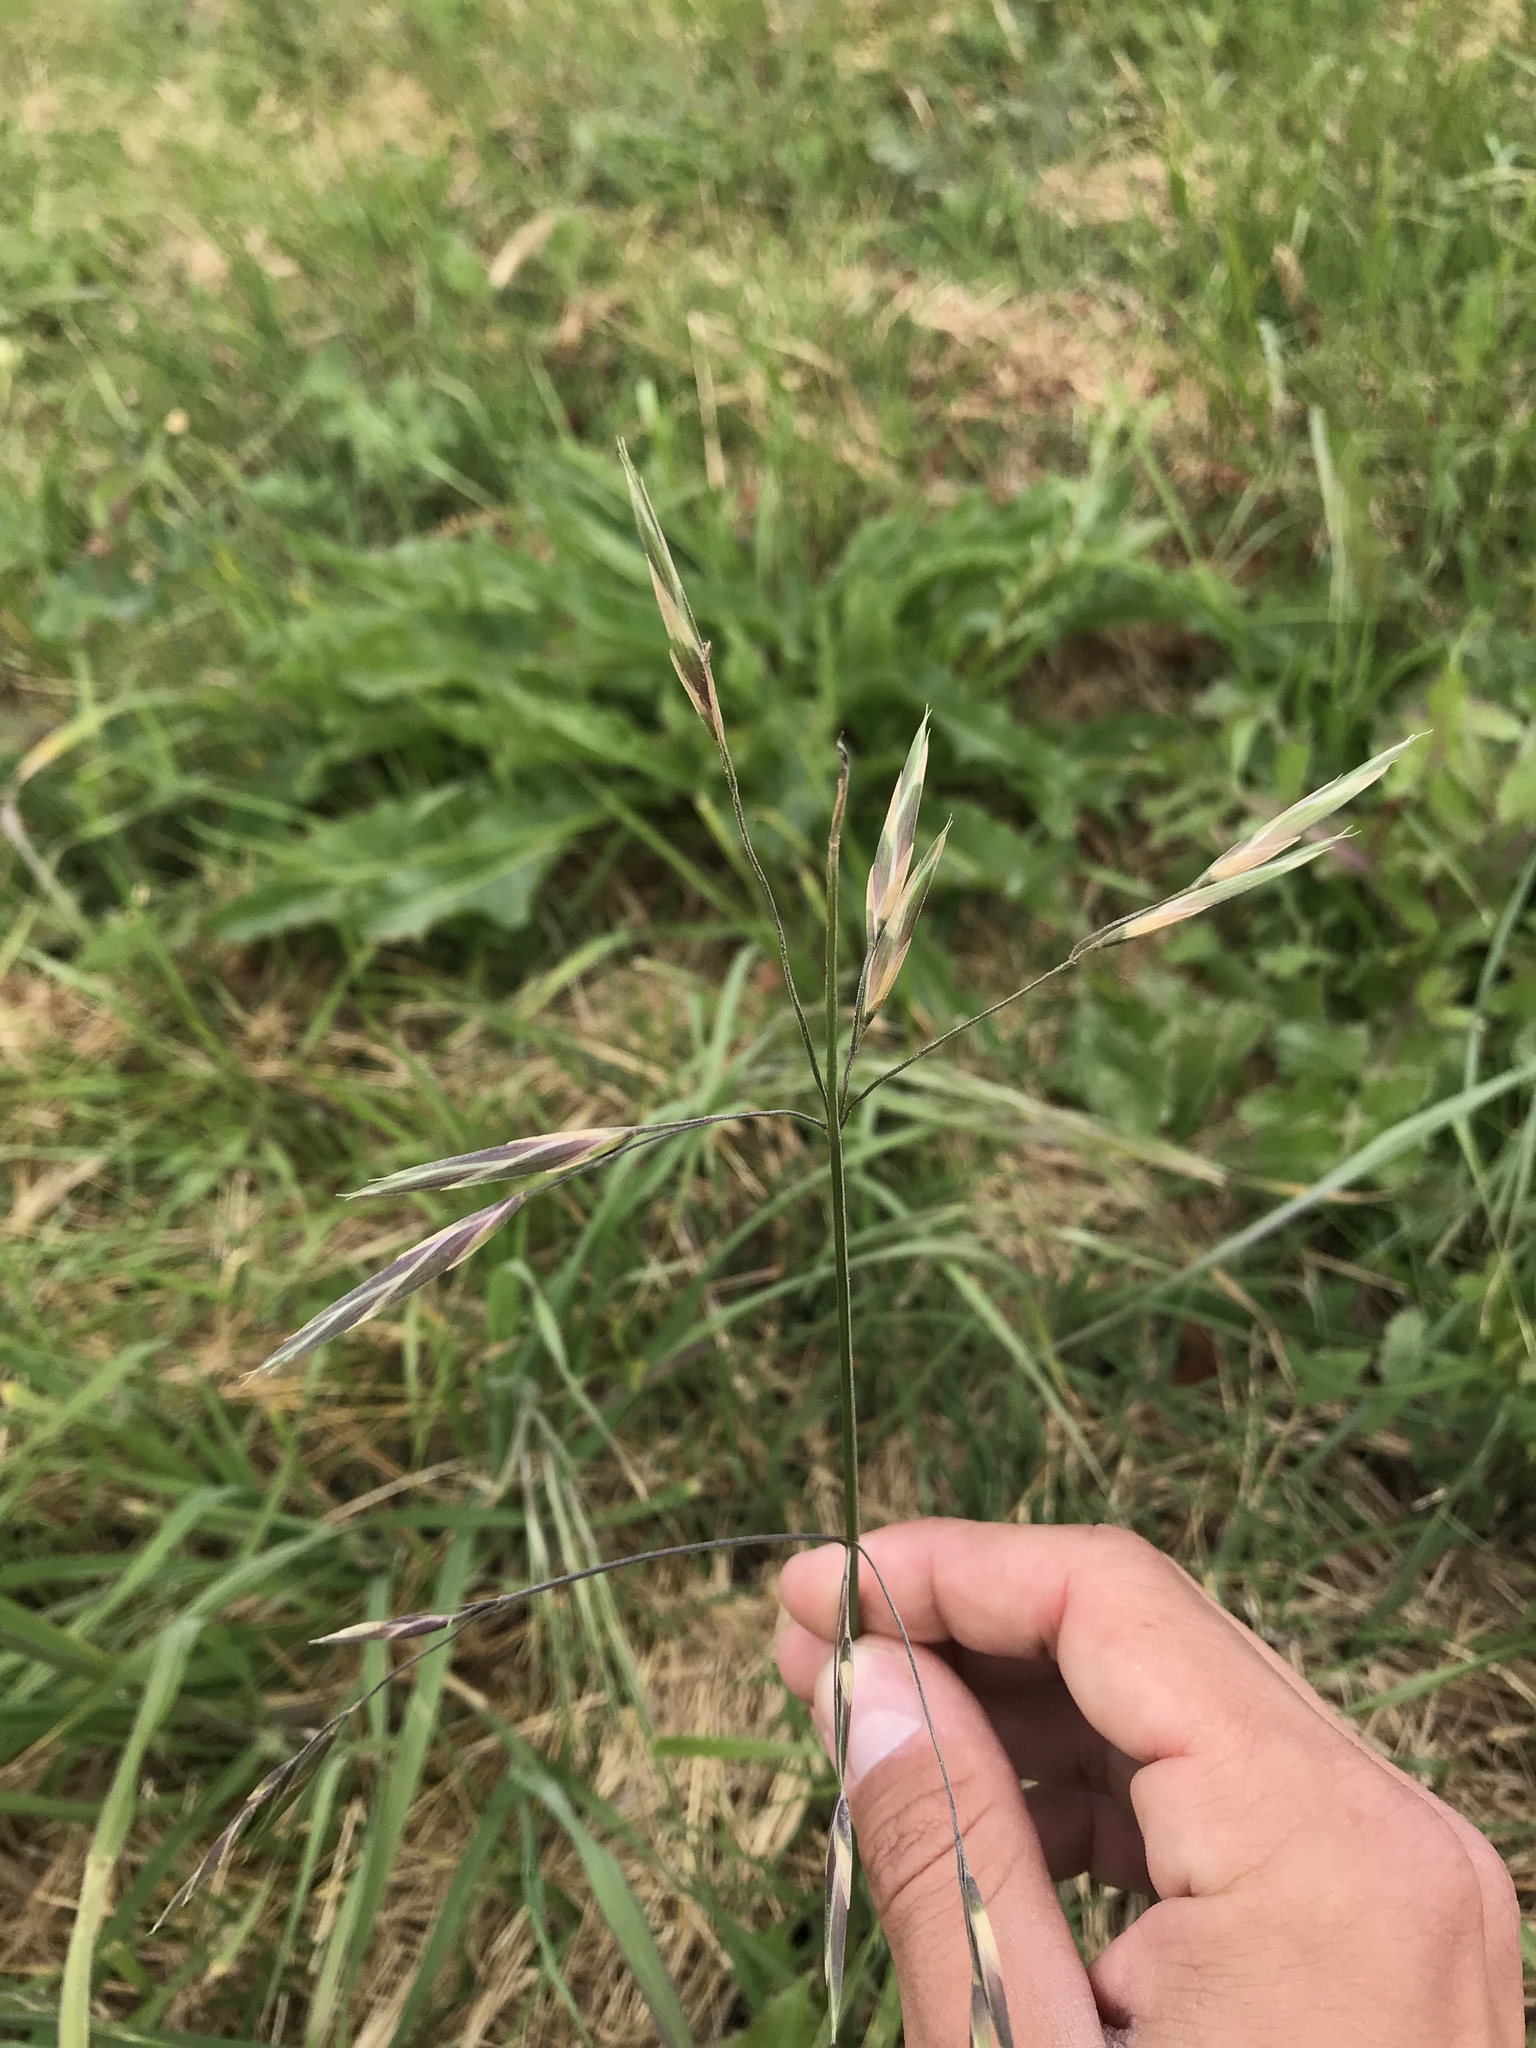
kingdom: Plantae
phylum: Tracheophyta
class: Liliopsida
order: Poales
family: Poaceae
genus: Bromus
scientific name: Bromus catharticus
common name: Rescuegrass
